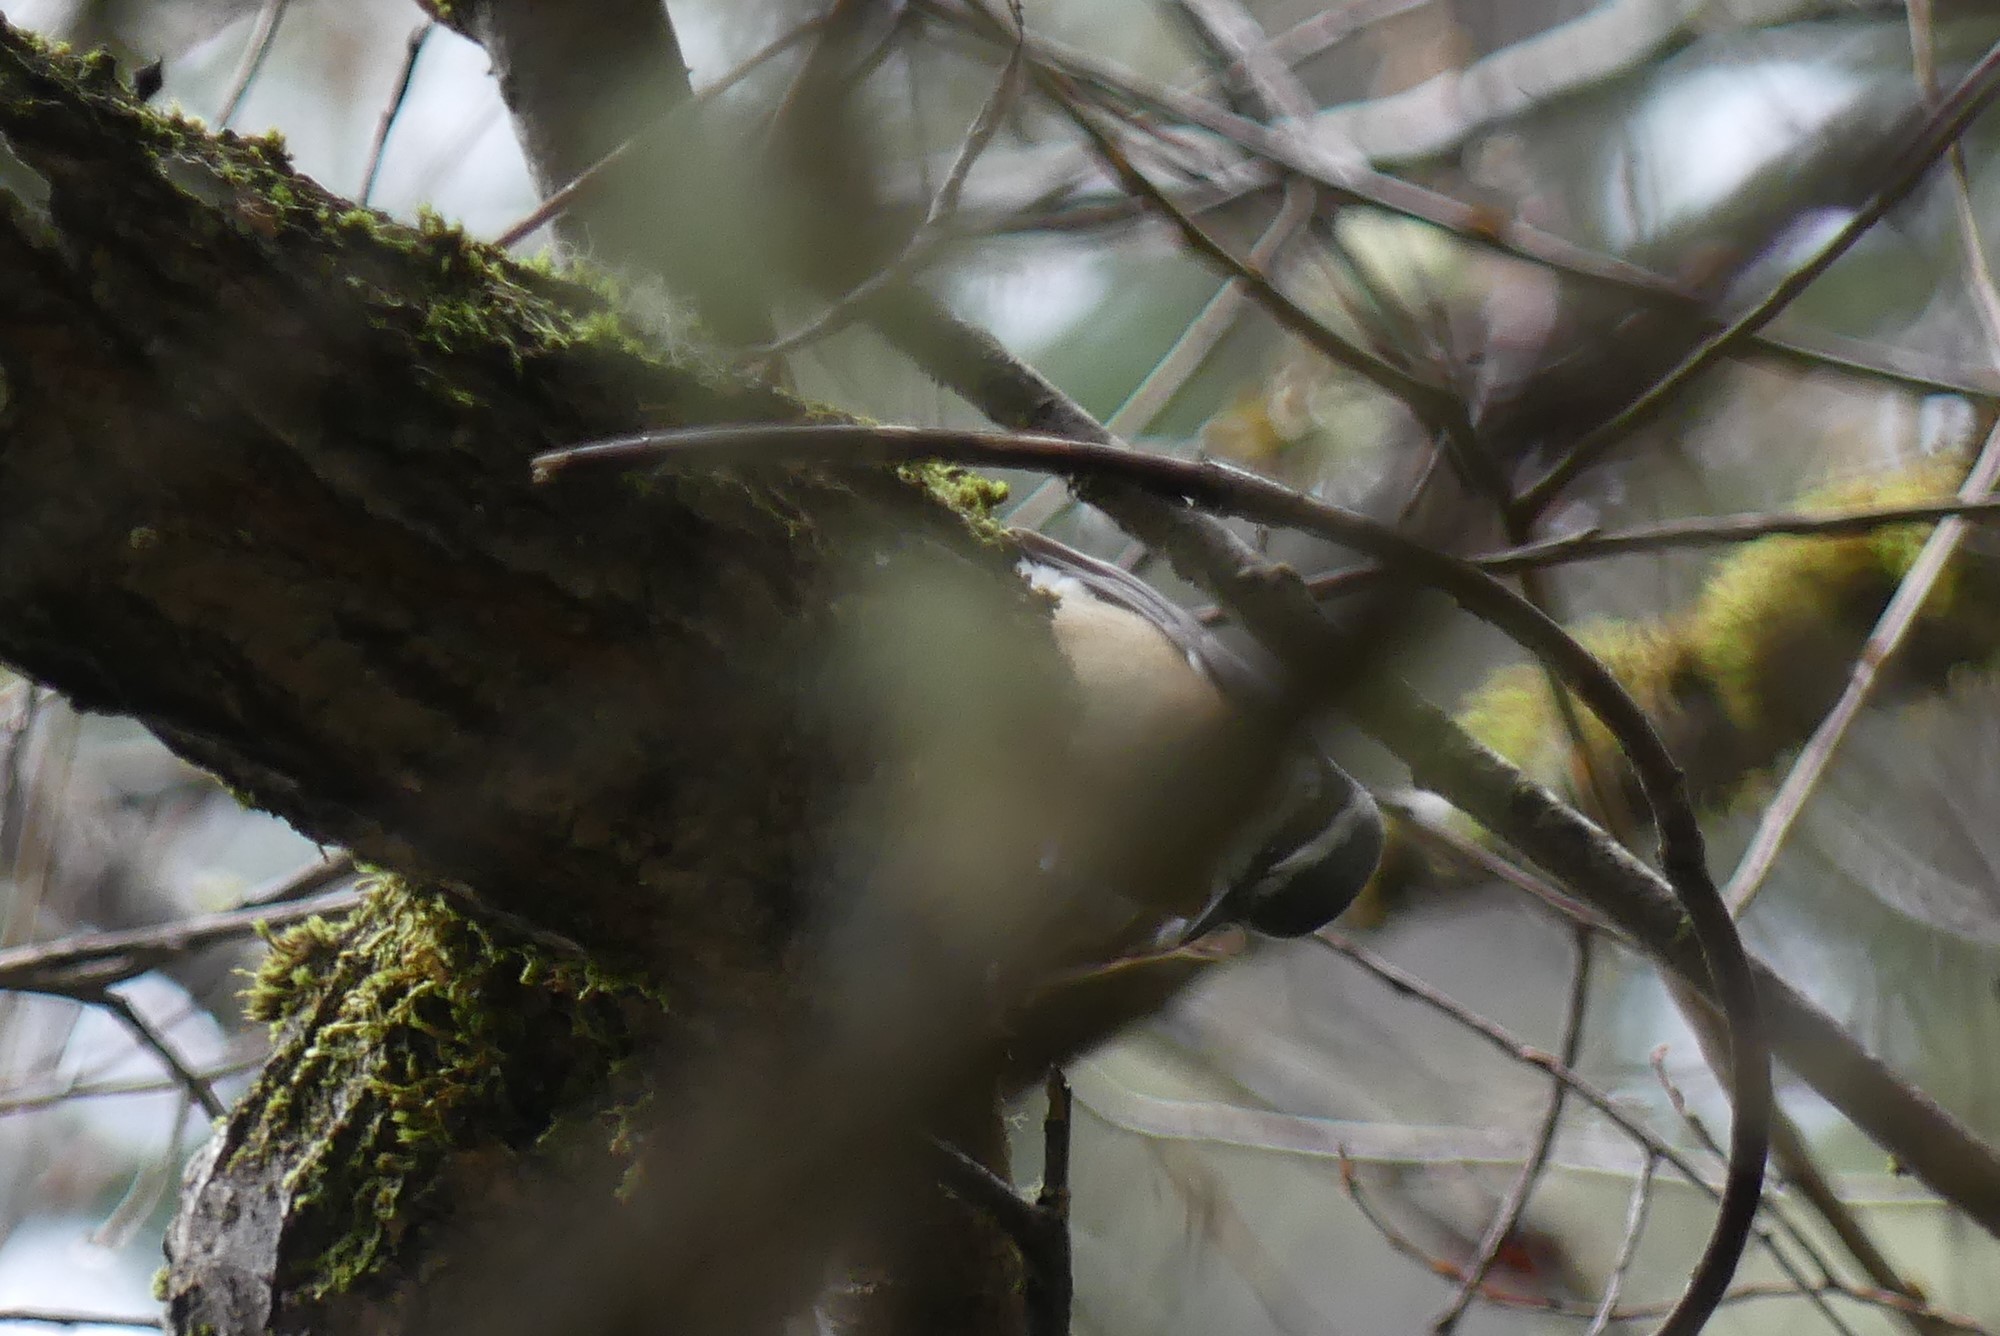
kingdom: Animalia
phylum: Chordata
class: Aves
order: Passeriformes
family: Sittidae
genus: Sitta
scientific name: Sitta canadensis
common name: Red-breasted nuthatch
